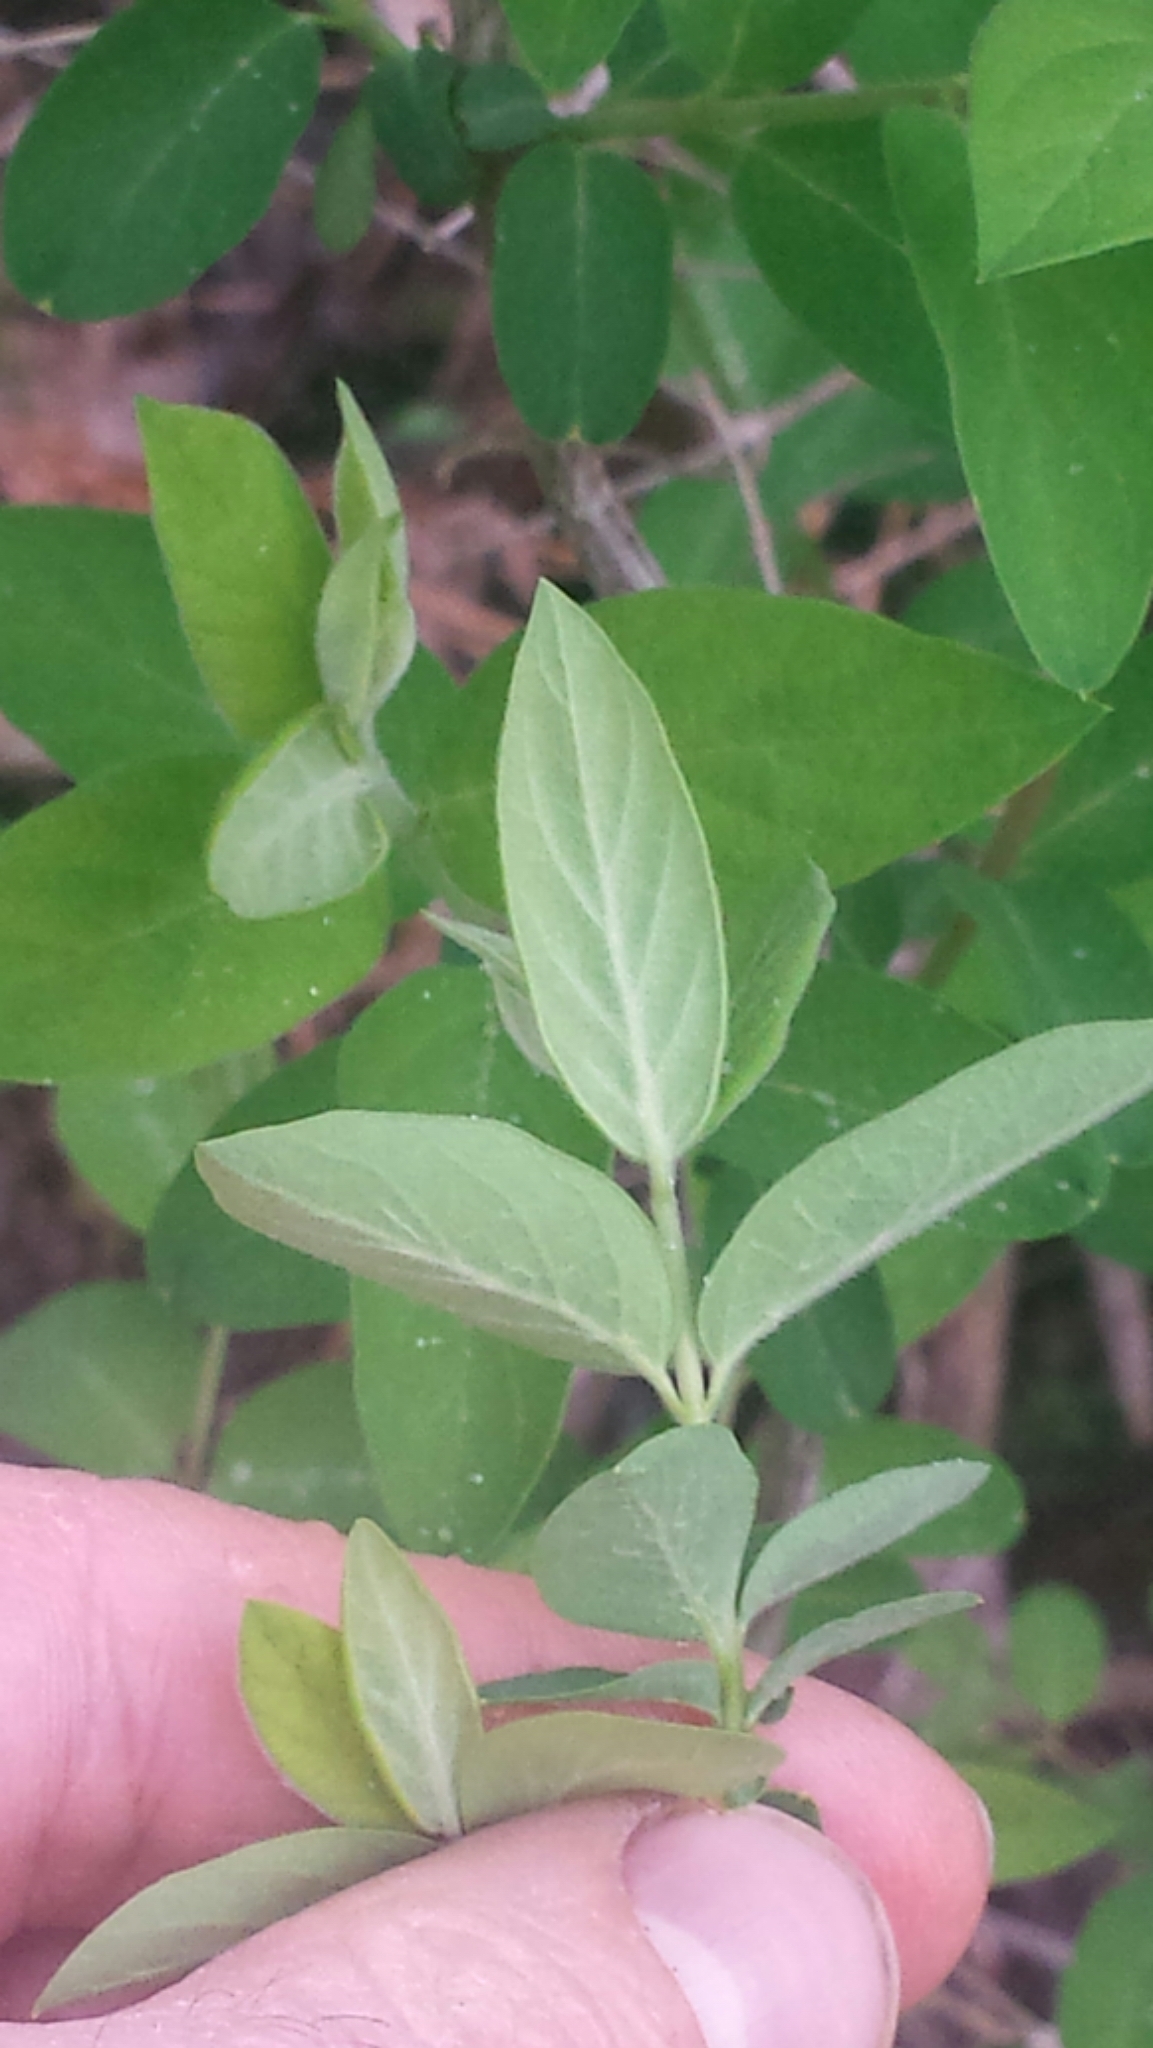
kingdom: Plantae
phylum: Tracheophyta
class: Magnoliopsida
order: Dipsacales
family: Caprifoliaceae
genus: Lonicera
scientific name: Lonicera morrowii
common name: Morrow's honeysuckle
